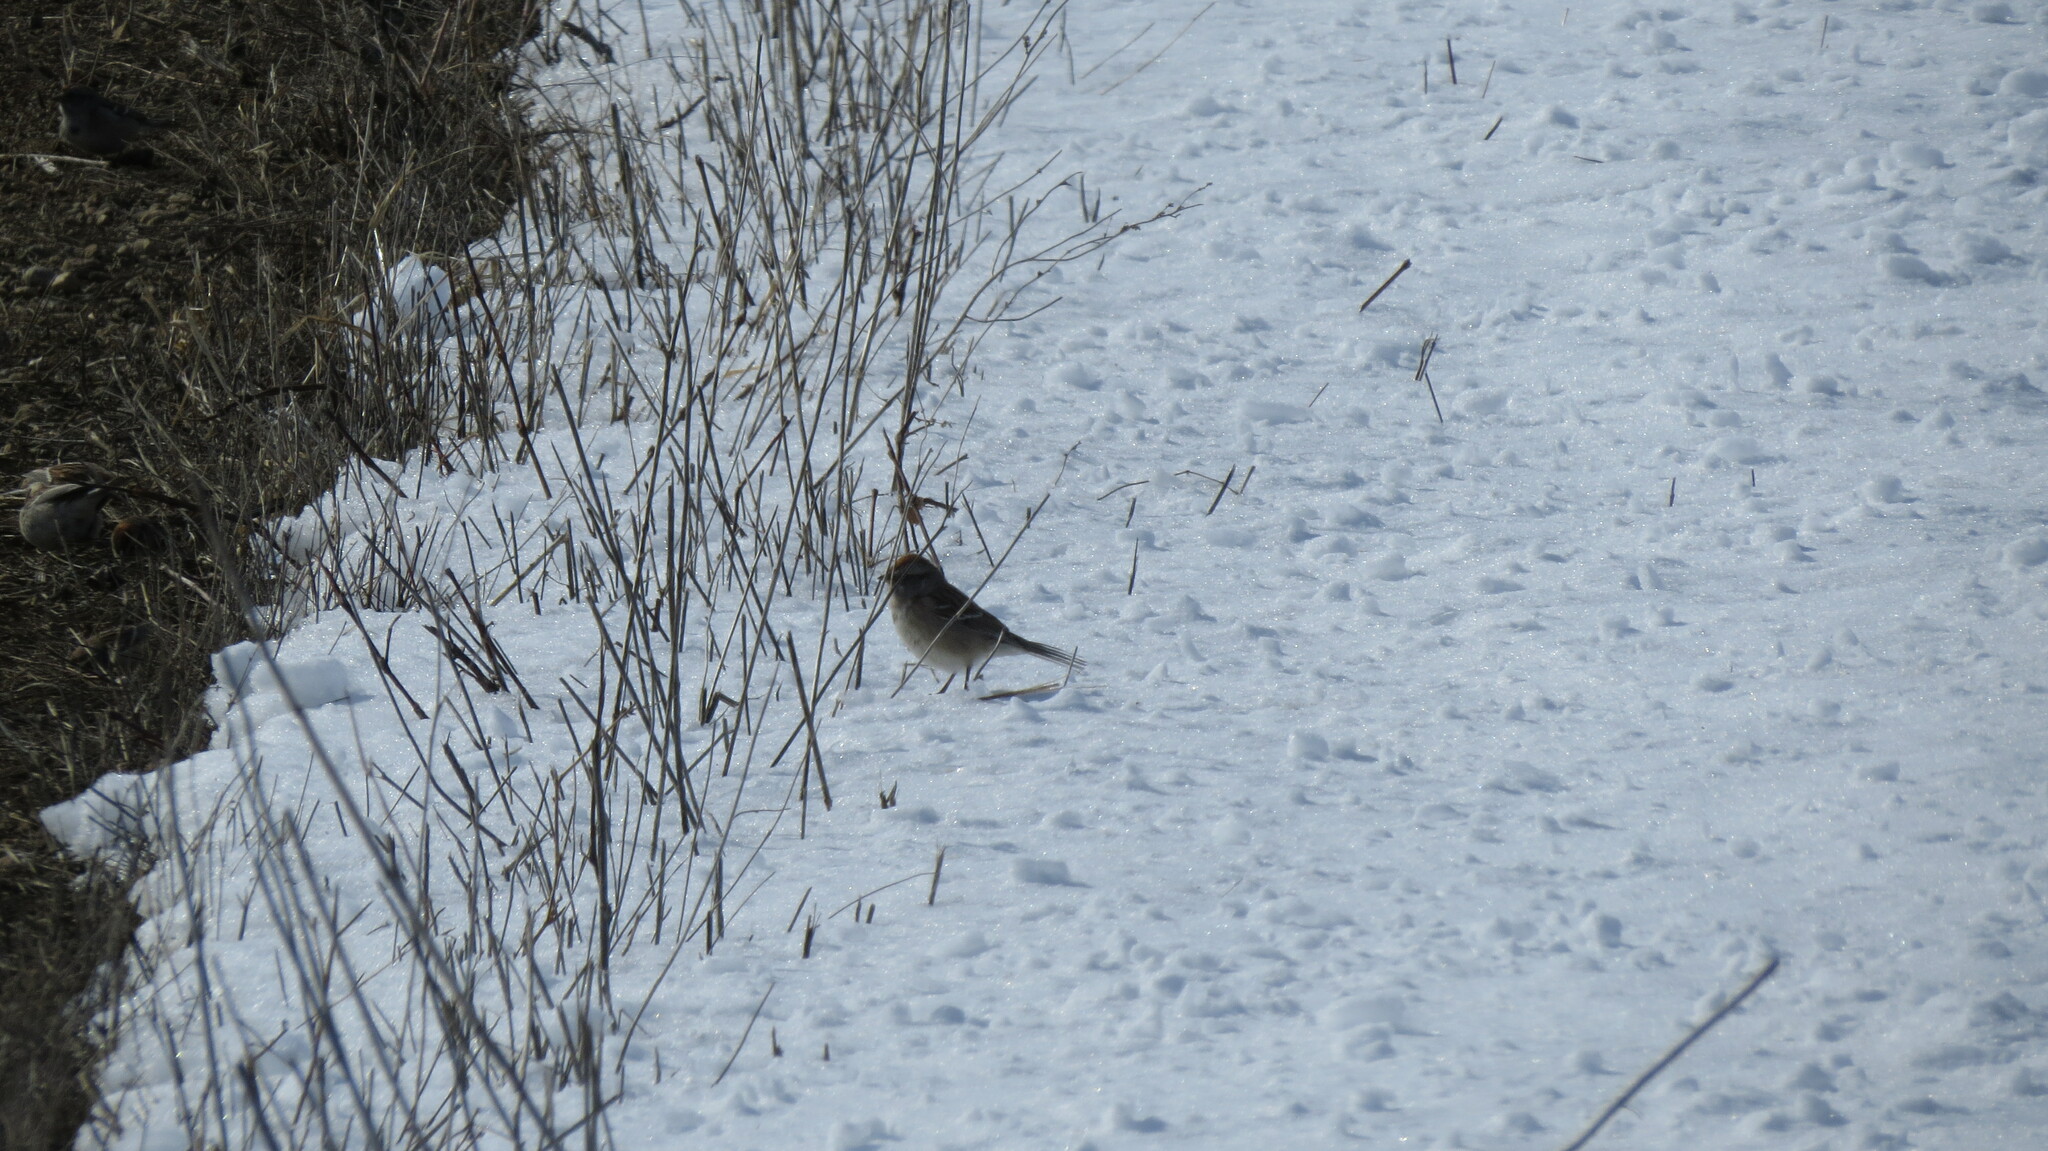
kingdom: Animalia
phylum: Chordata
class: Aves
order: Passeriformes
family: Passerellidae
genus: Spizelloides
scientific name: Spizelloides arborea
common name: American tree sparrow
